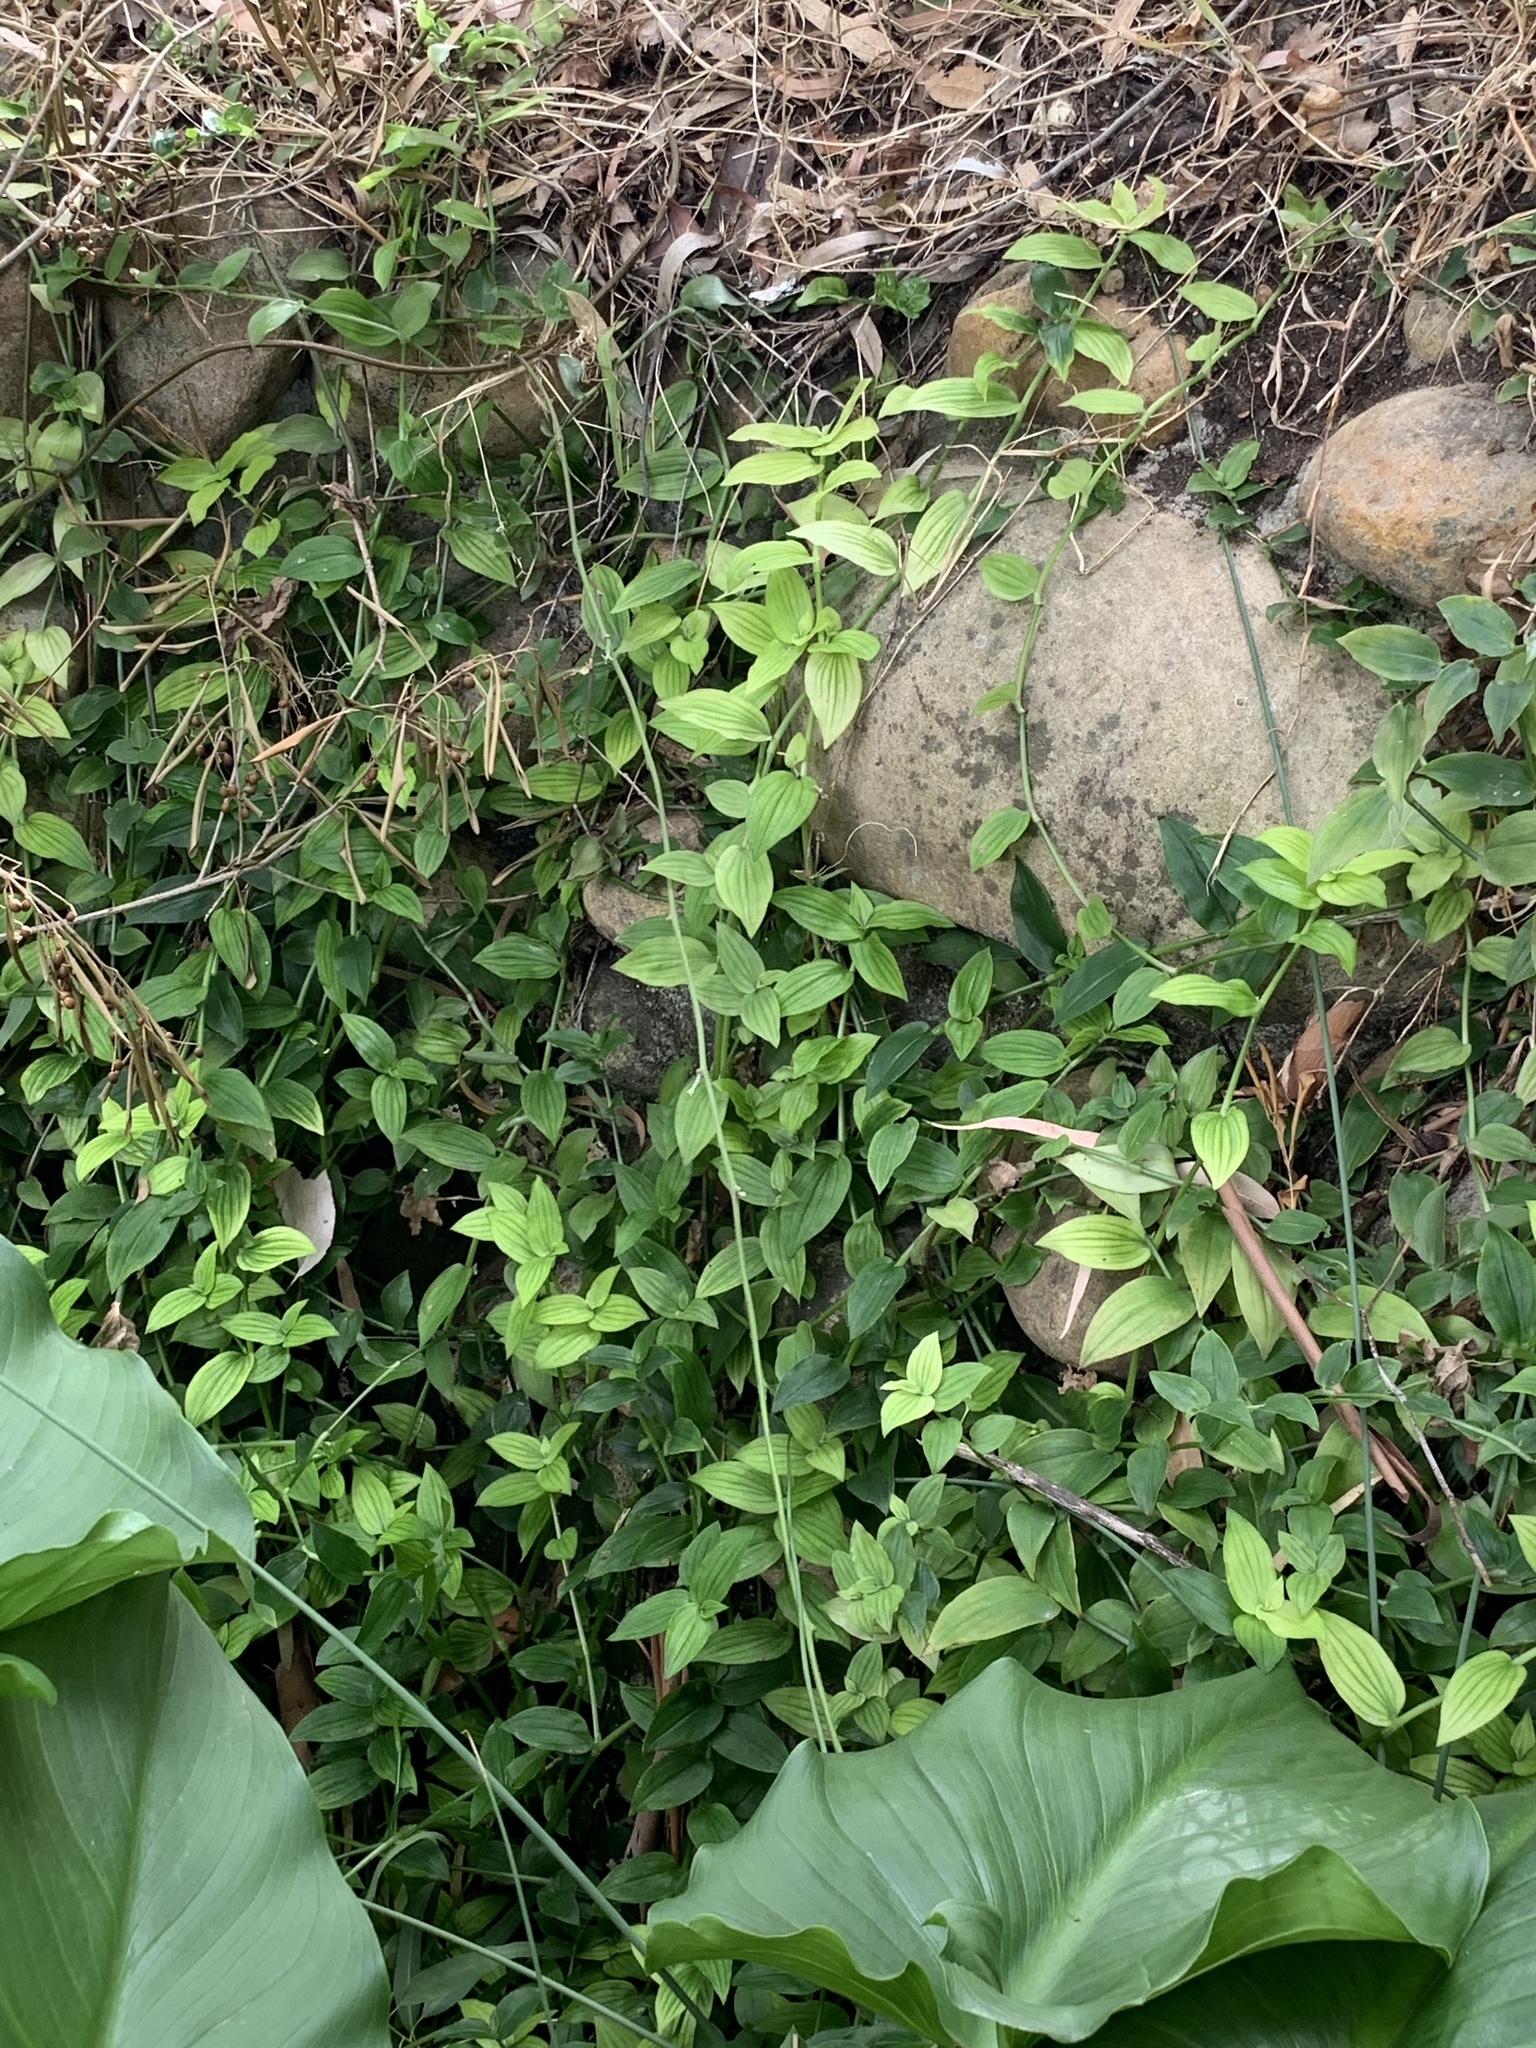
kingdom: Plantae
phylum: Tracheophyta
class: Liliopsida
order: Commelinales
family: Commelinaceae
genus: Tradescantia
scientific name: Tradescantia fluminensis
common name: Wandering-jew
